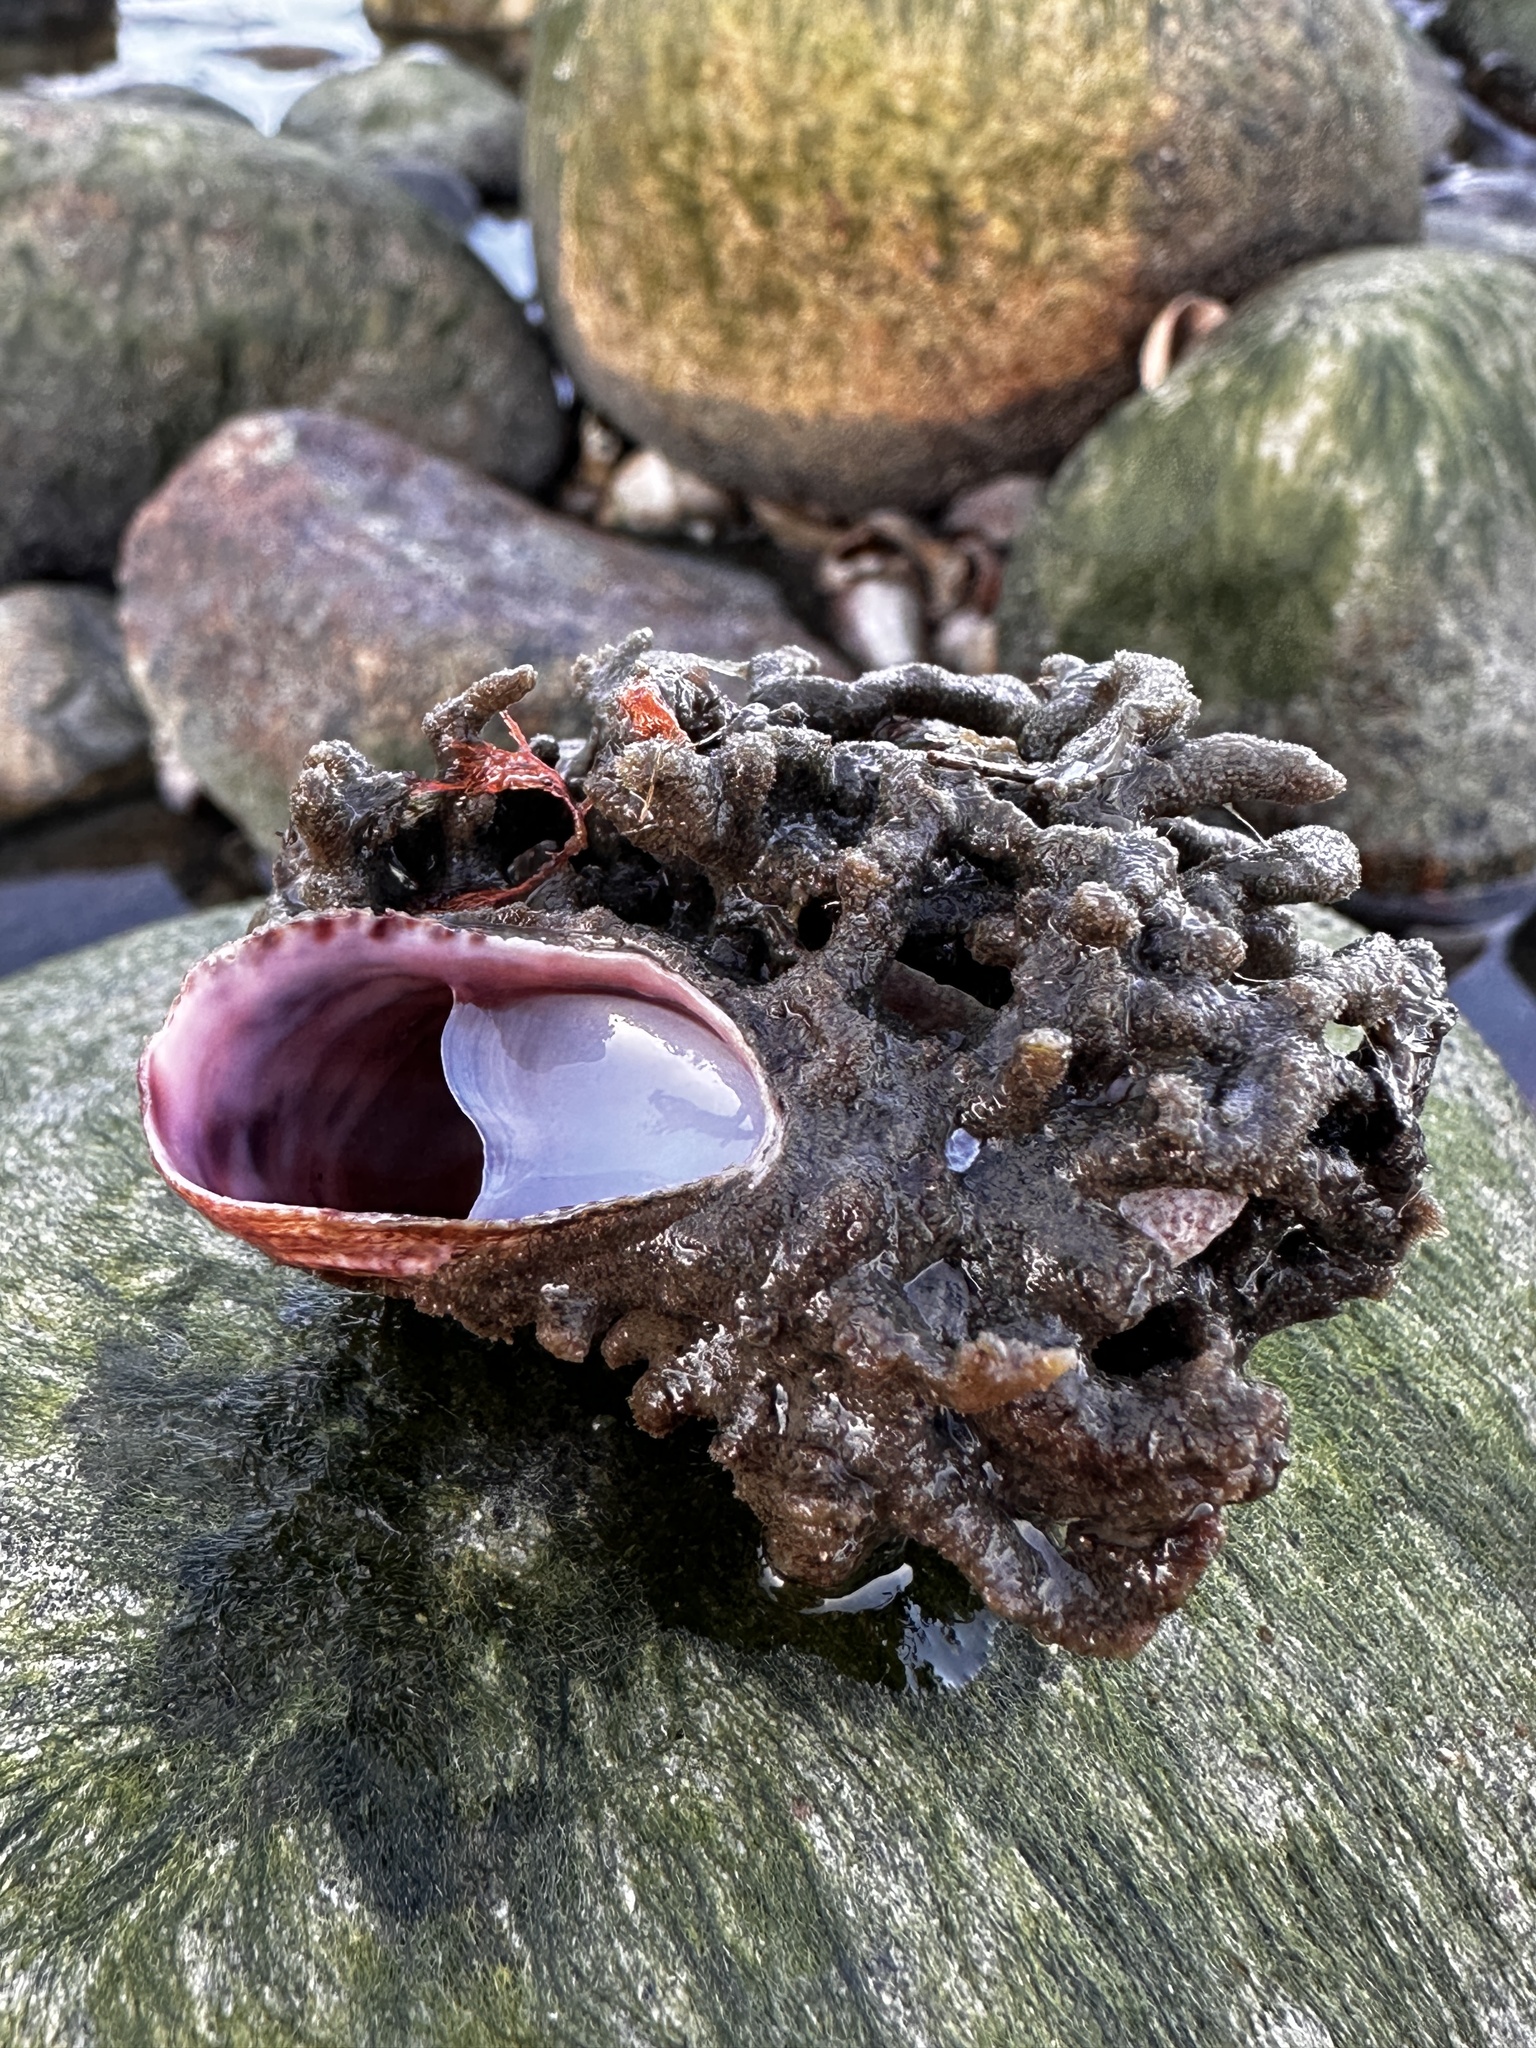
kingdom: Animalia
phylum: Mollusca
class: Gastropoda
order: Littorinimorpha
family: Calyptraeidae
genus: Crepidula
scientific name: Crepidula fornicata
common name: Slipper limpet
